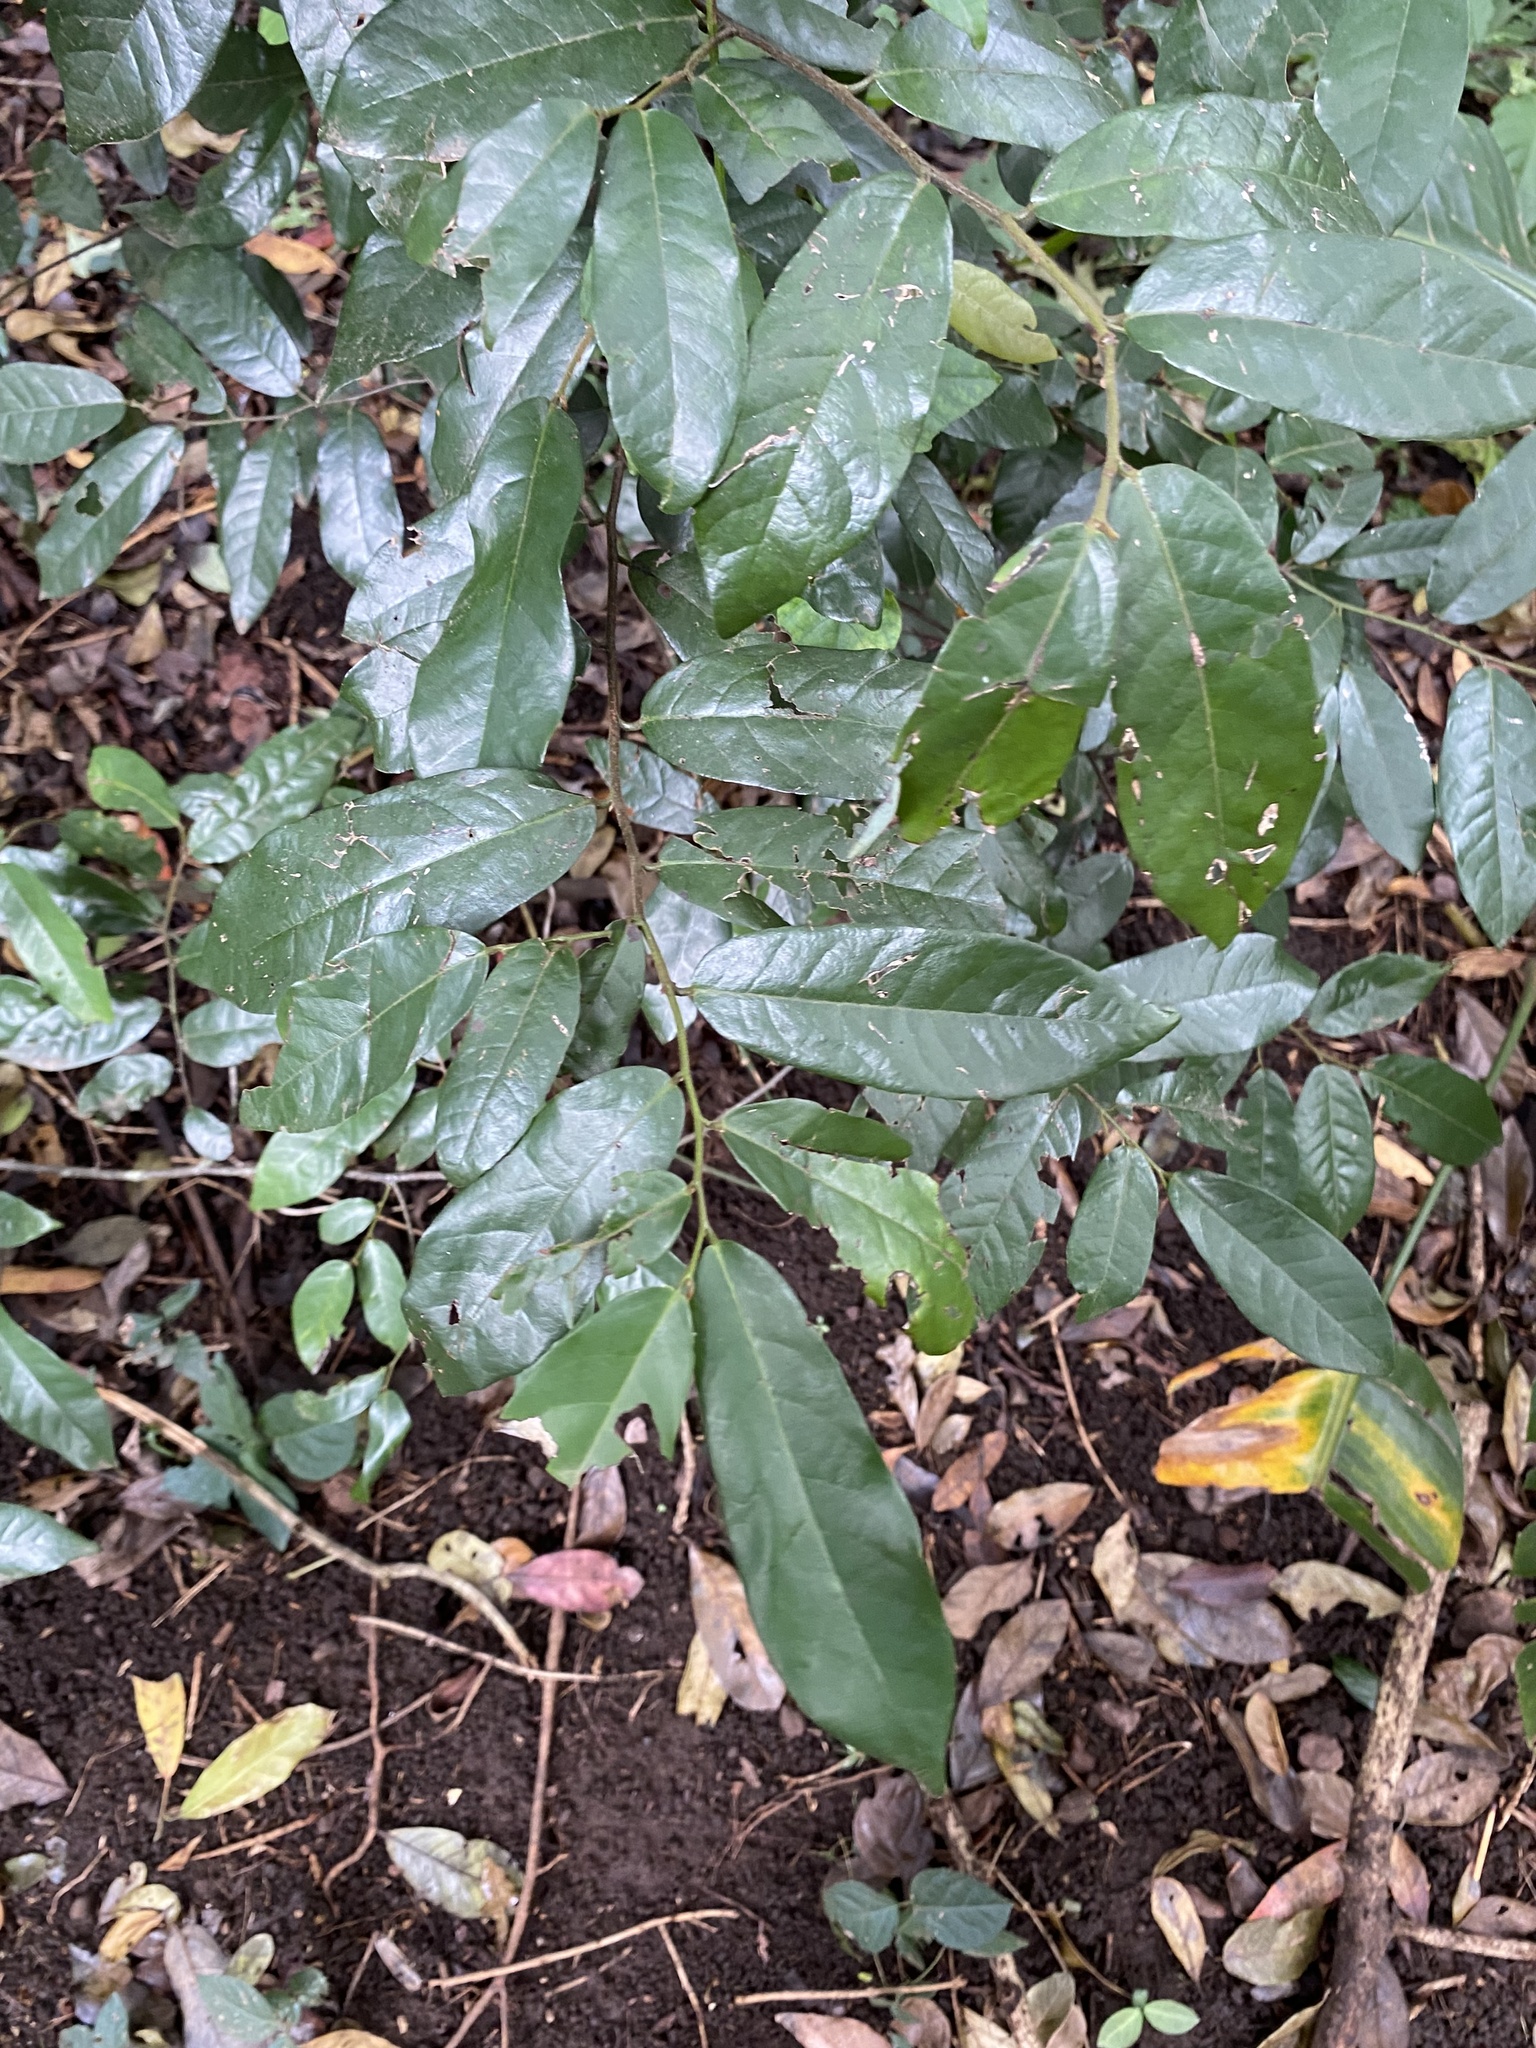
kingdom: Plantae
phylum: Tracheophyta
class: Magnoliopsida
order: Magnoliales
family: Annonaceae
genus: Monanthotaxis
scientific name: Monanthotaxis caffra
